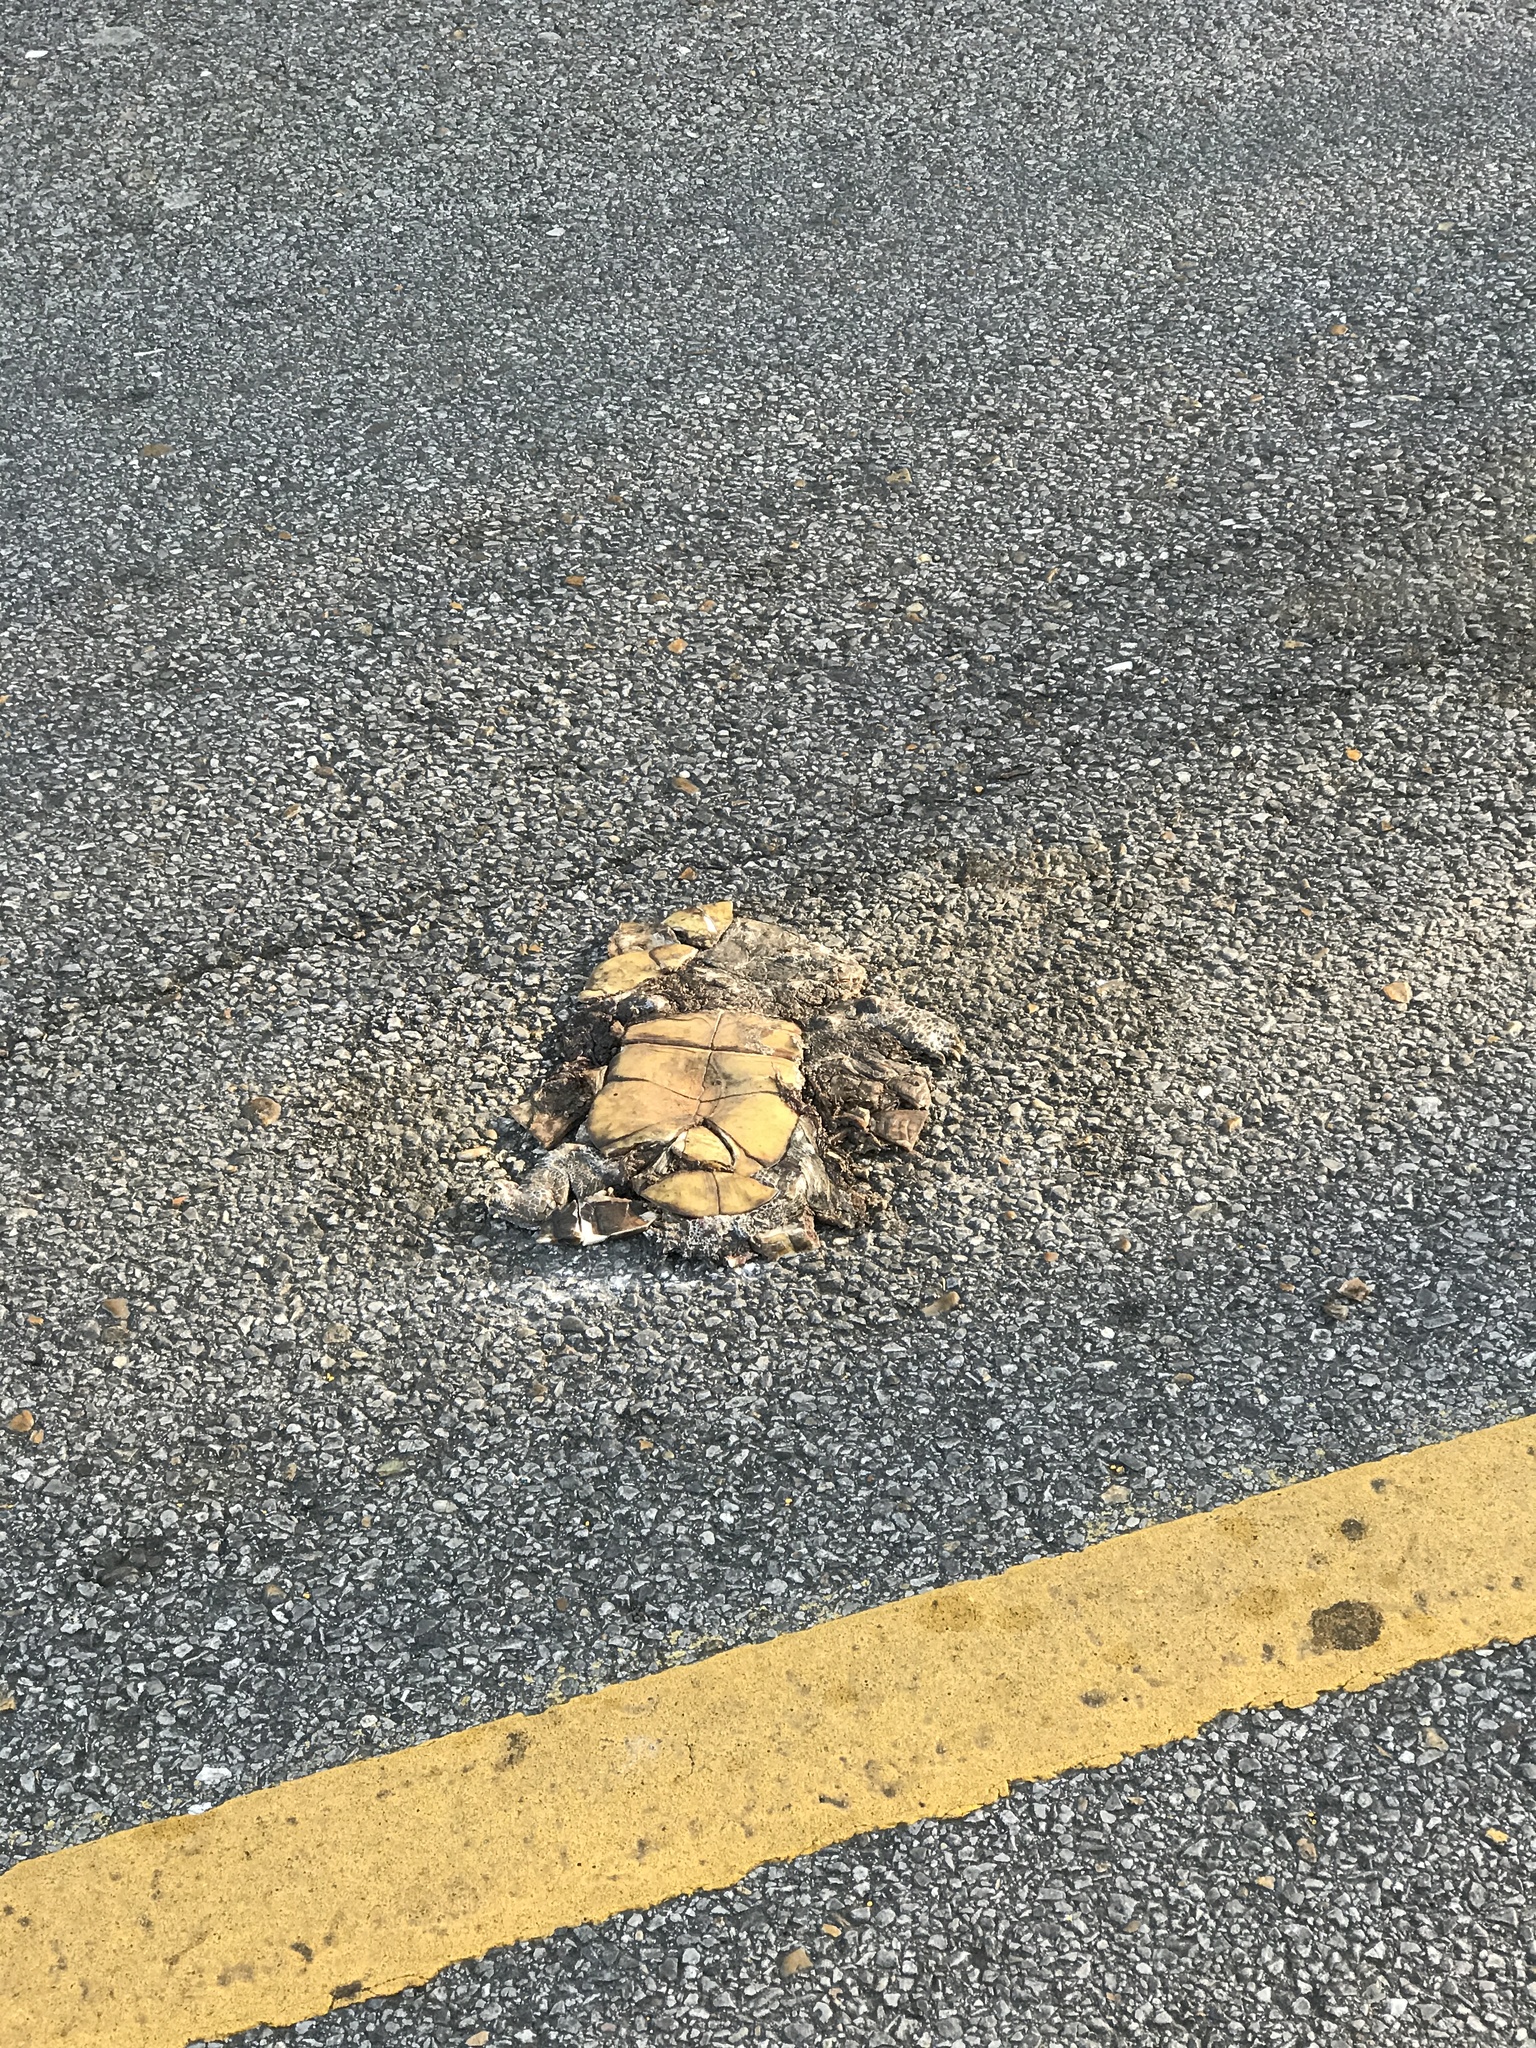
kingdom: Animalia
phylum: Chordata
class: Testudines
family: Emydidae
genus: Terrapene
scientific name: Terrapene carolina
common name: Common box turtle
